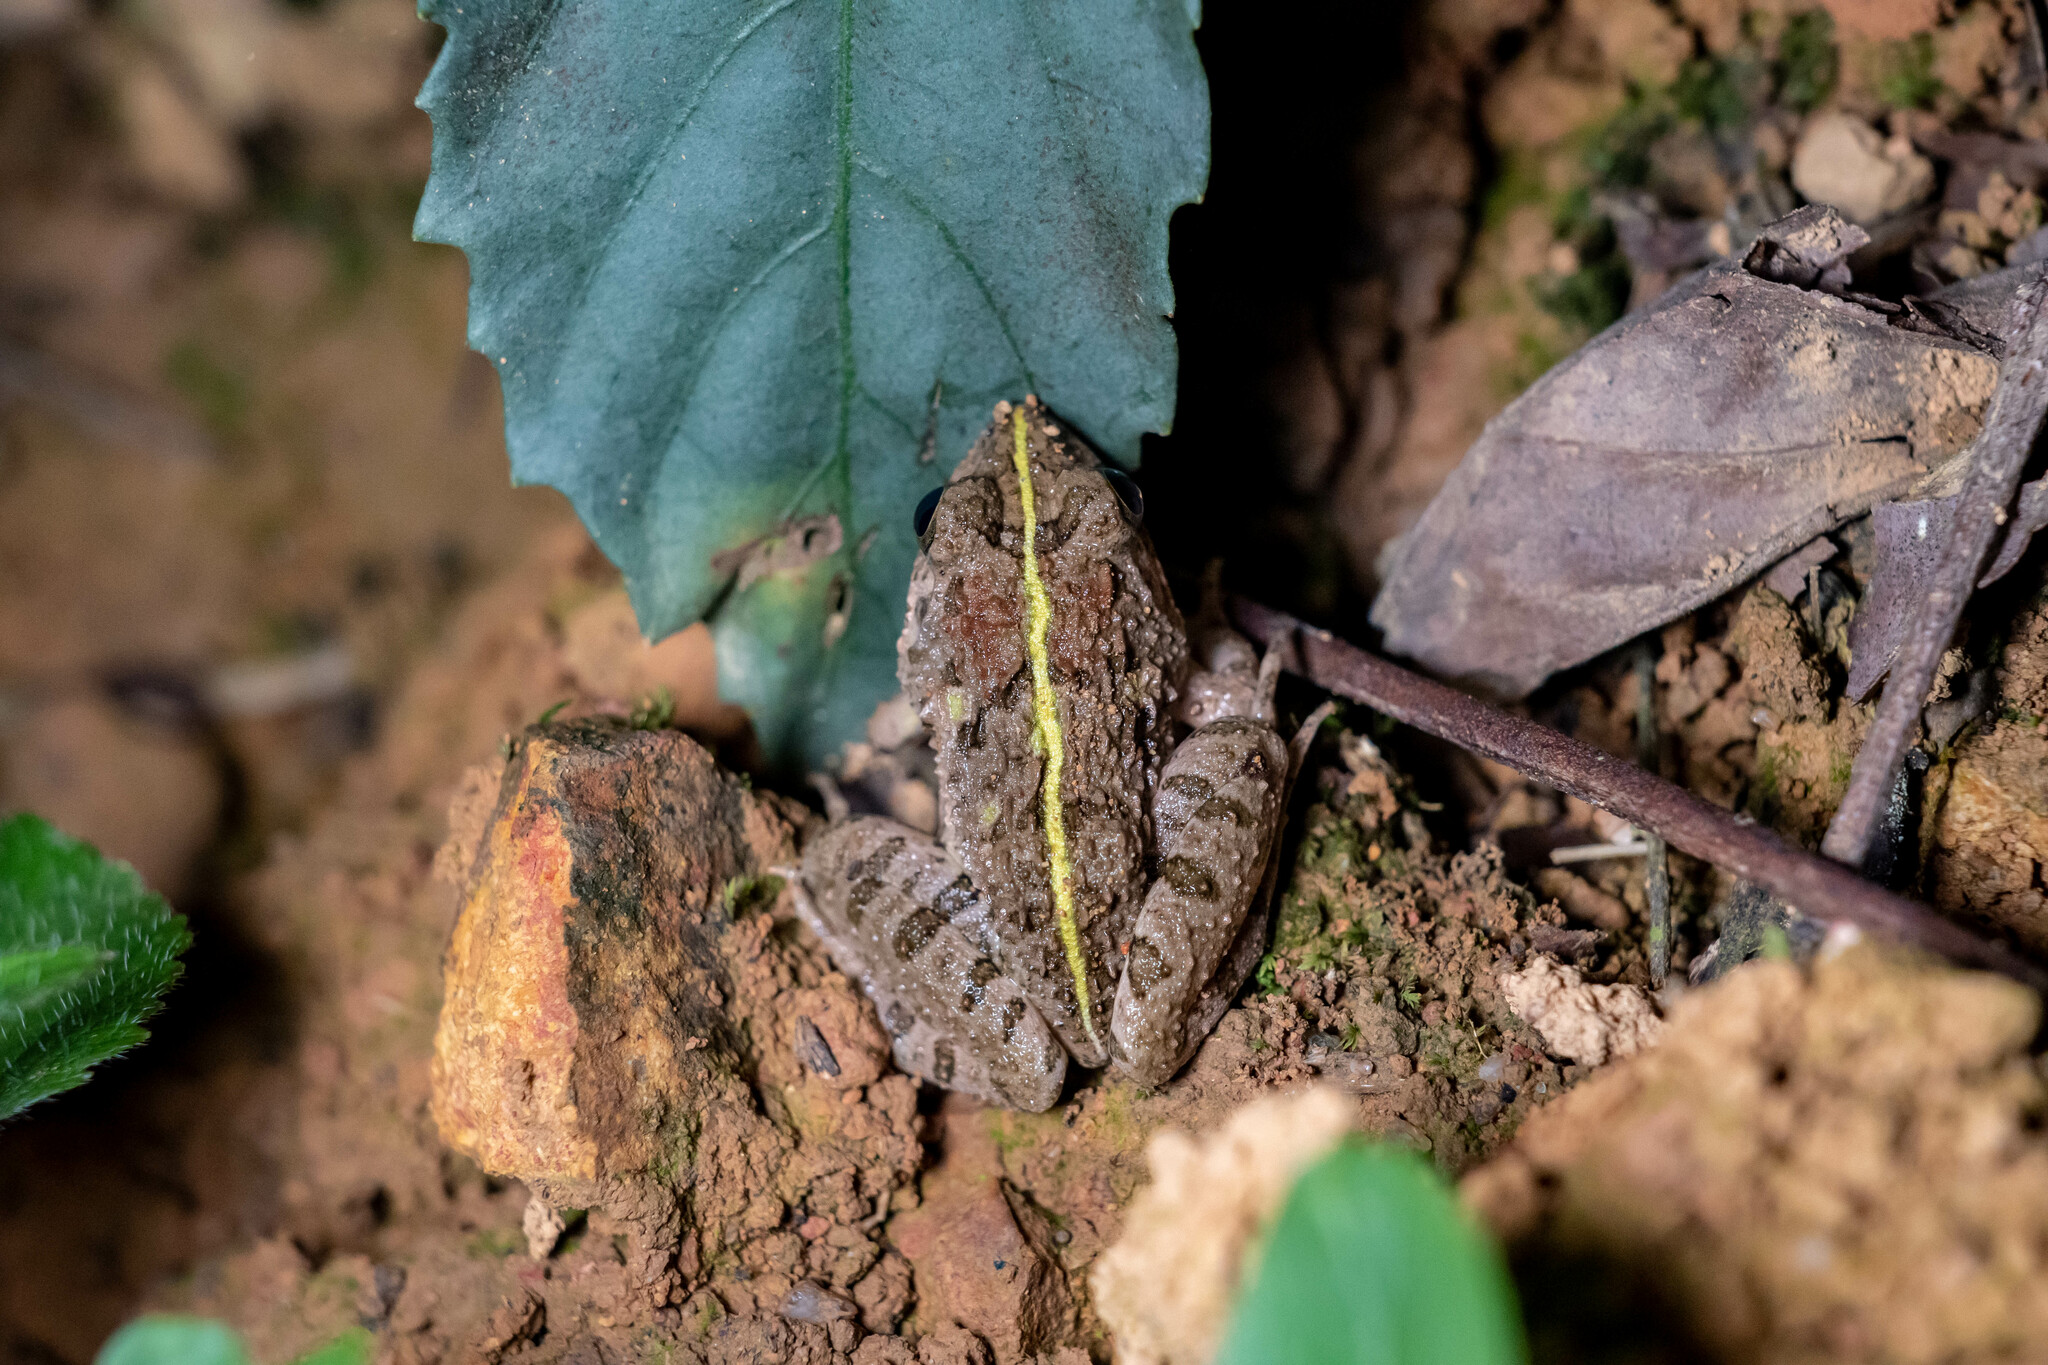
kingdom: Animalia
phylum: Chordata
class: Amphibia
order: Anura
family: Dicroglossidae
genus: Fejervarya
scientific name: Fejervarya multistriata
